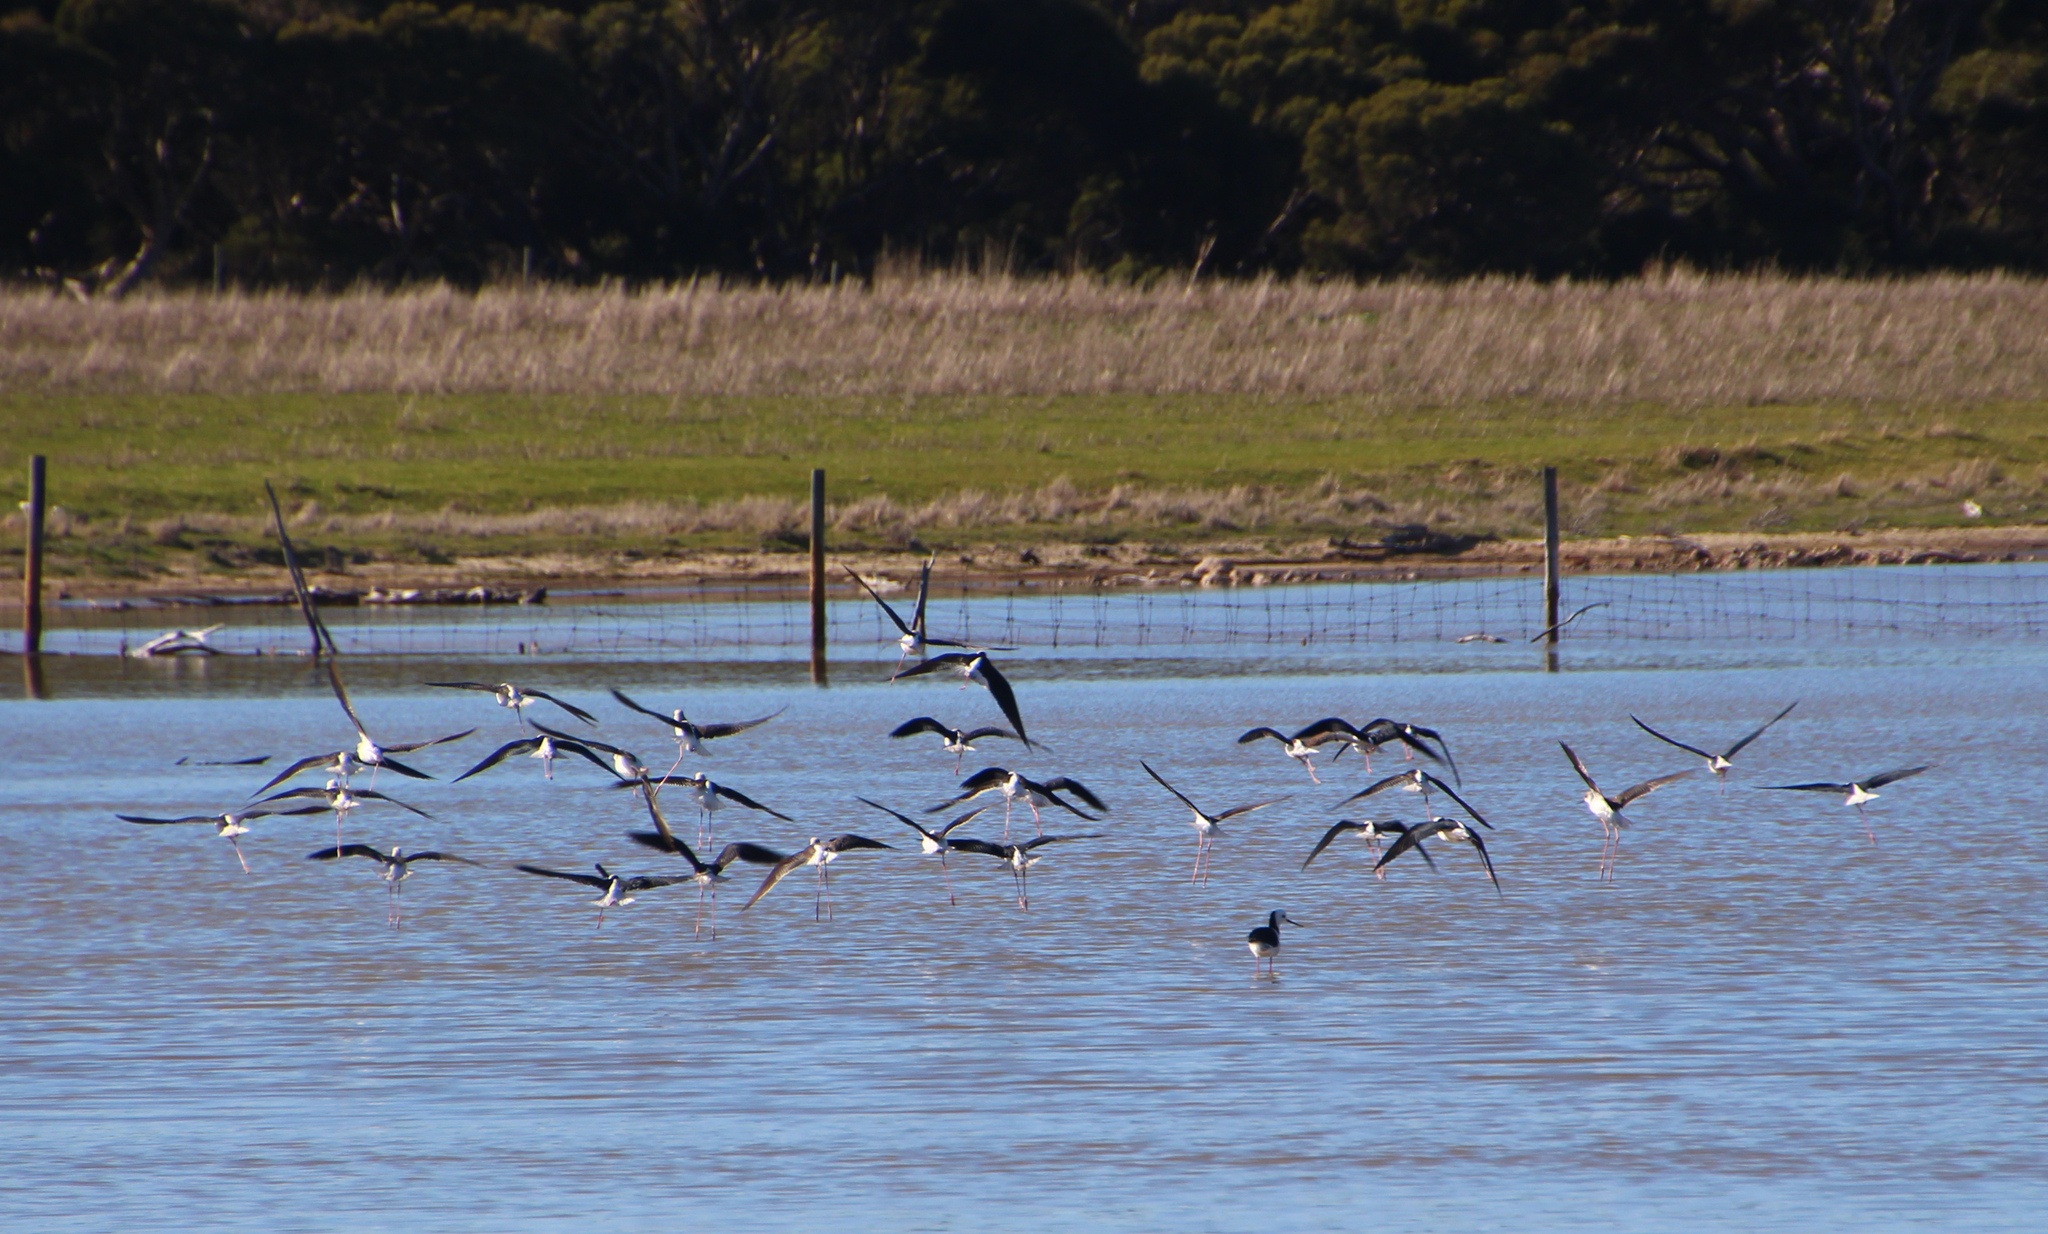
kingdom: Animalia
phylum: Chordata
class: Aves
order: Charadriiformes
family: Recurvirostridae
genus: Himantopus
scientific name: Himantopus leucocephalus
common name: White-headed stilt
